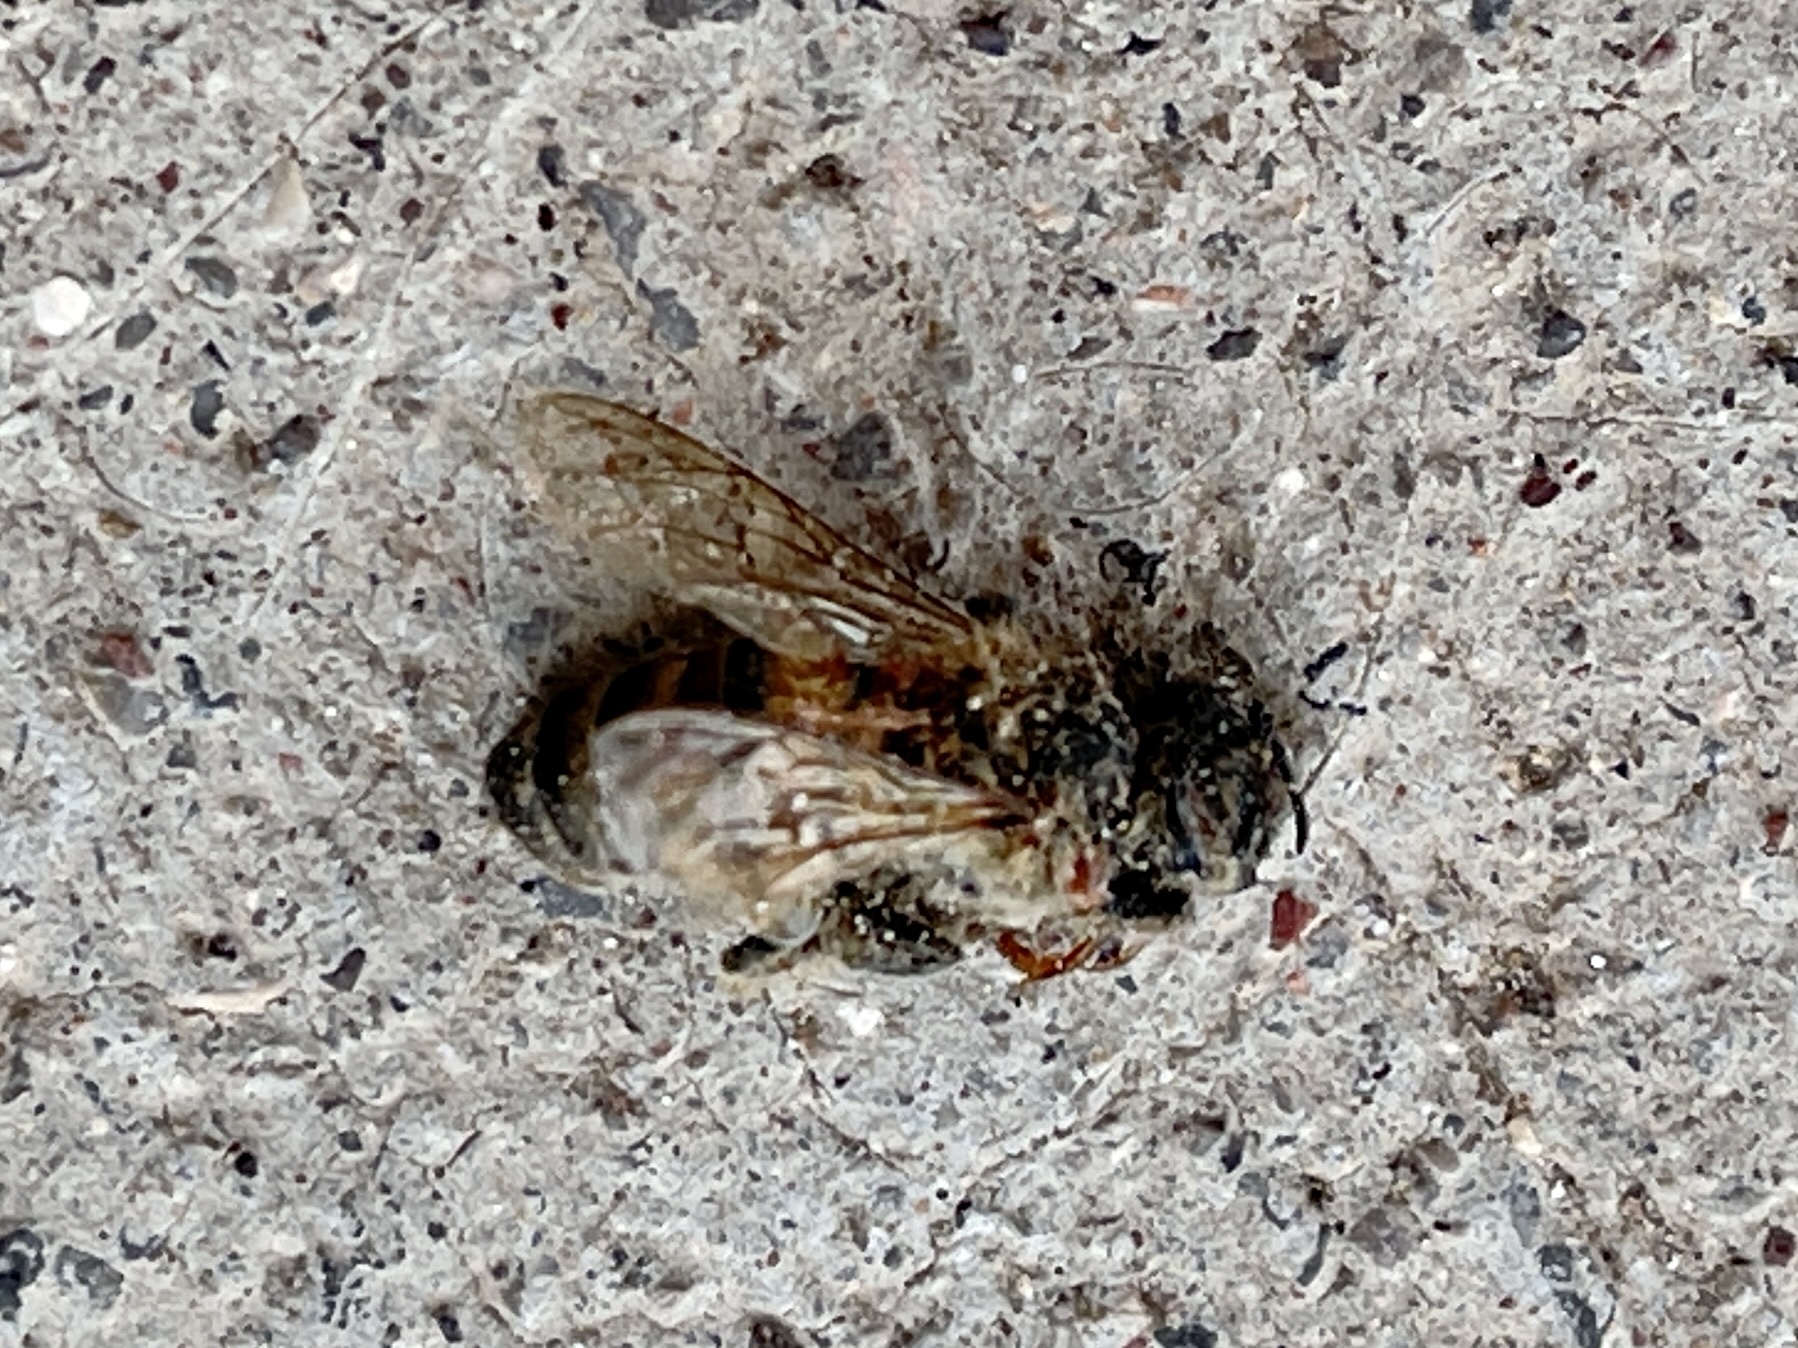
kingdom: Animalia
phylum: Arthropoda
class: Insecta
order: Hymenoptera
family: Apidae
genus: Apis
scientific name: Apis mellifera
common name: Honey bee
